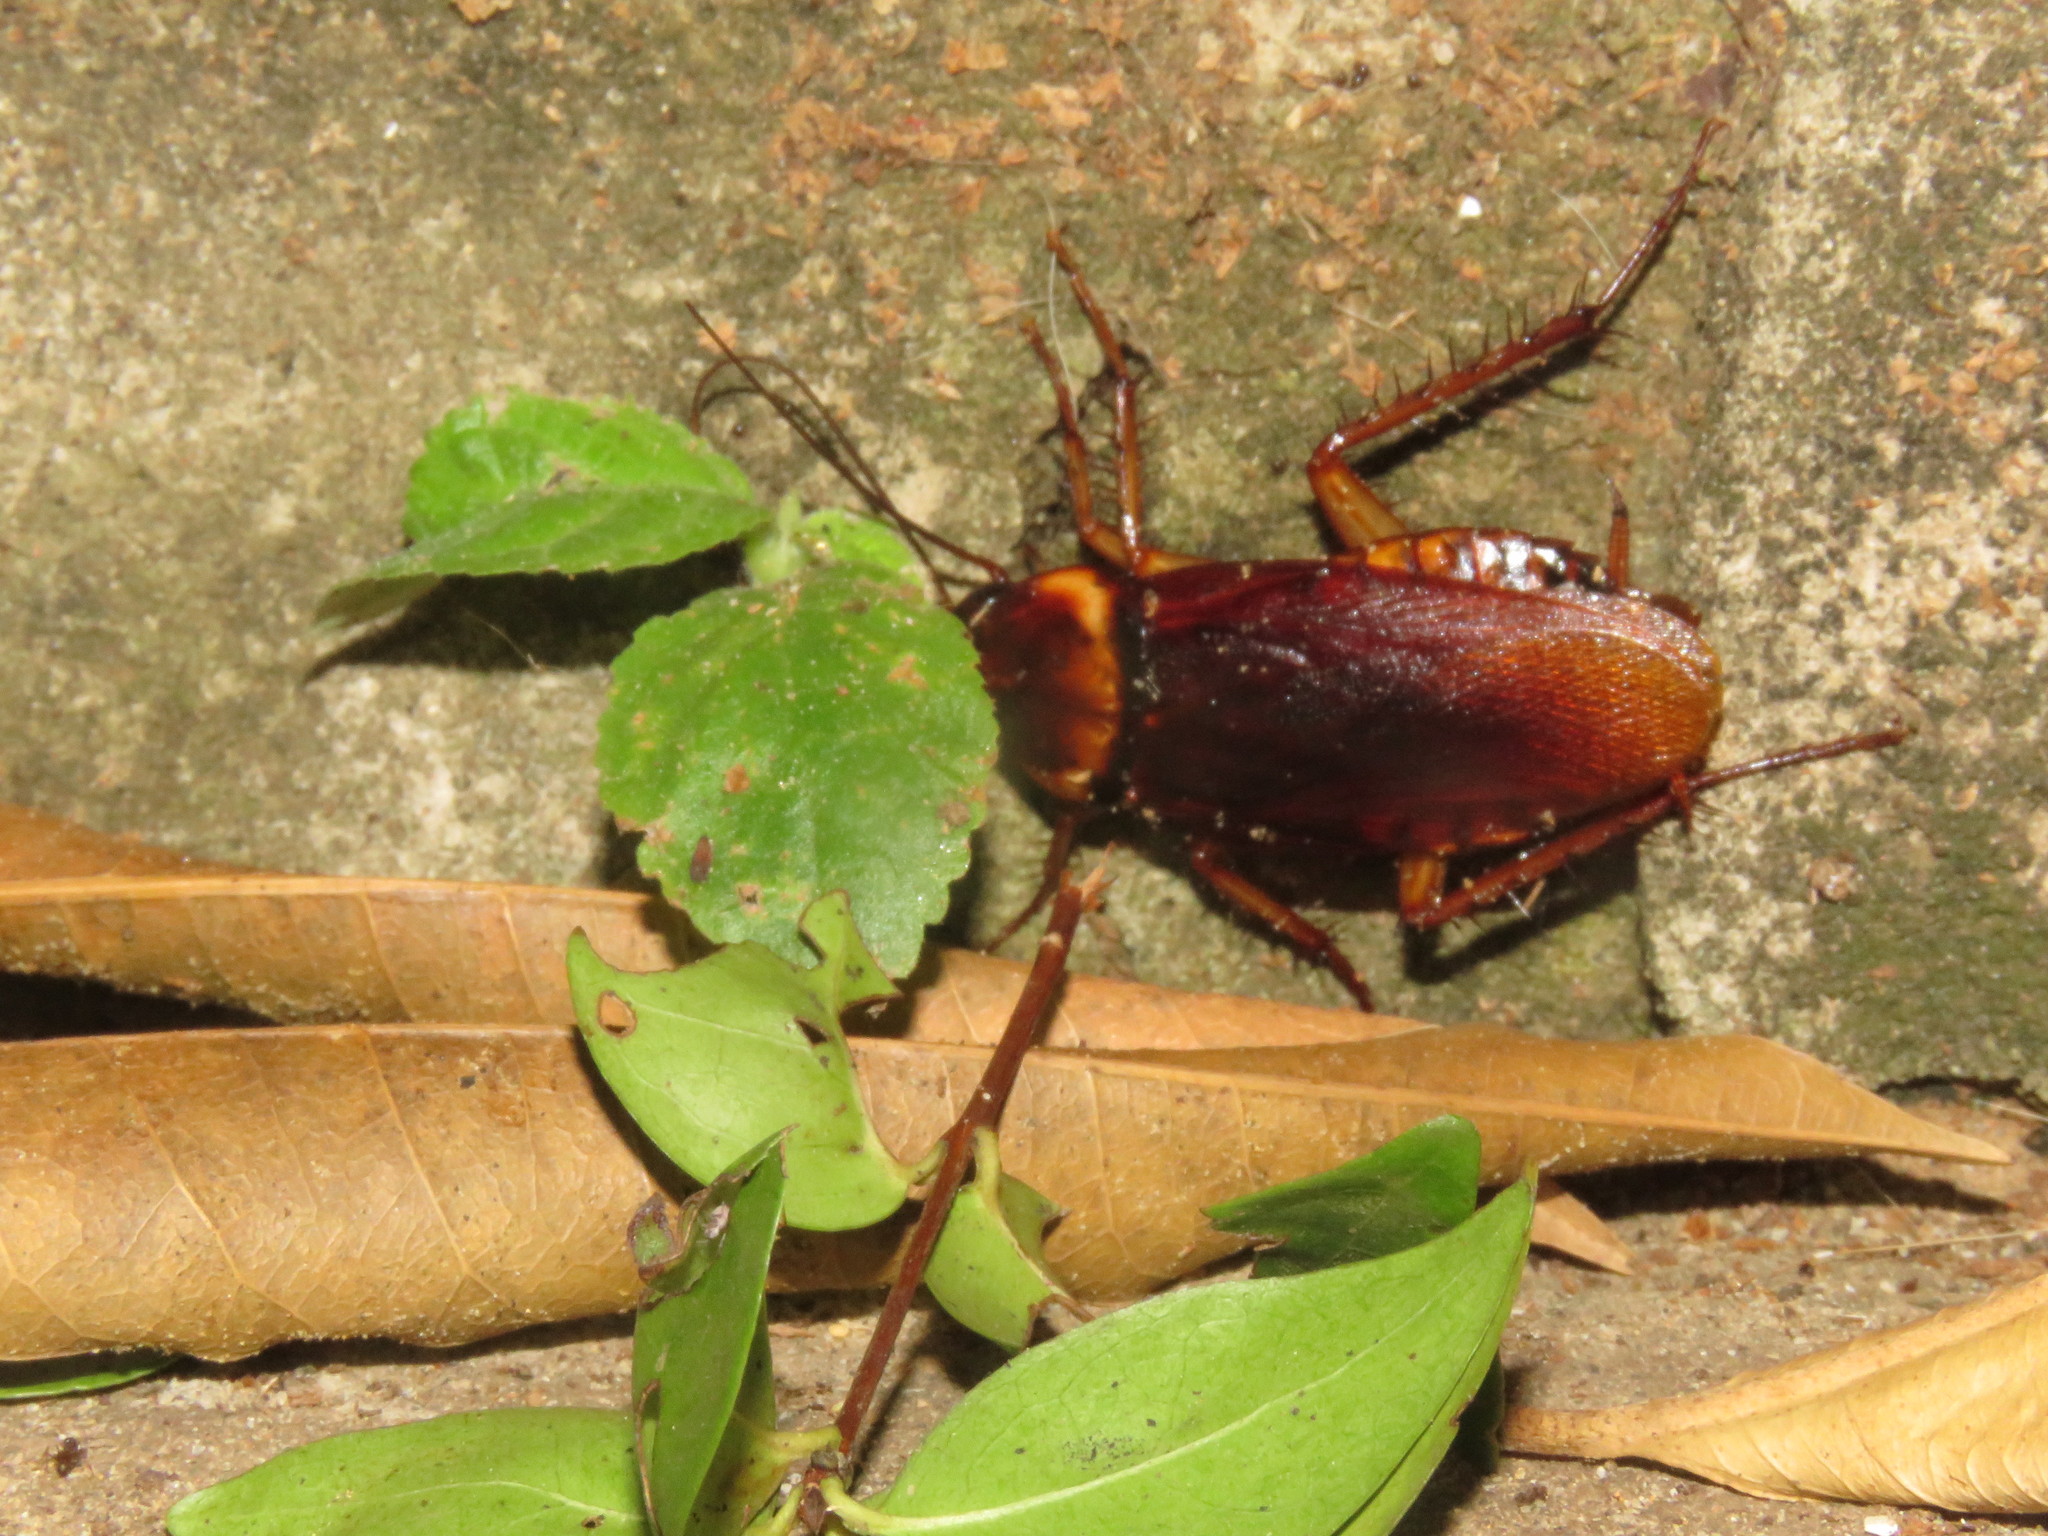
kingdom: Animalia
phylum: Arthropoda
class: Insecta
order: Blattodea
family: Blattidae
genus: Periplaneta
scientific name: Periplaneta americana
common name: American cockroach
